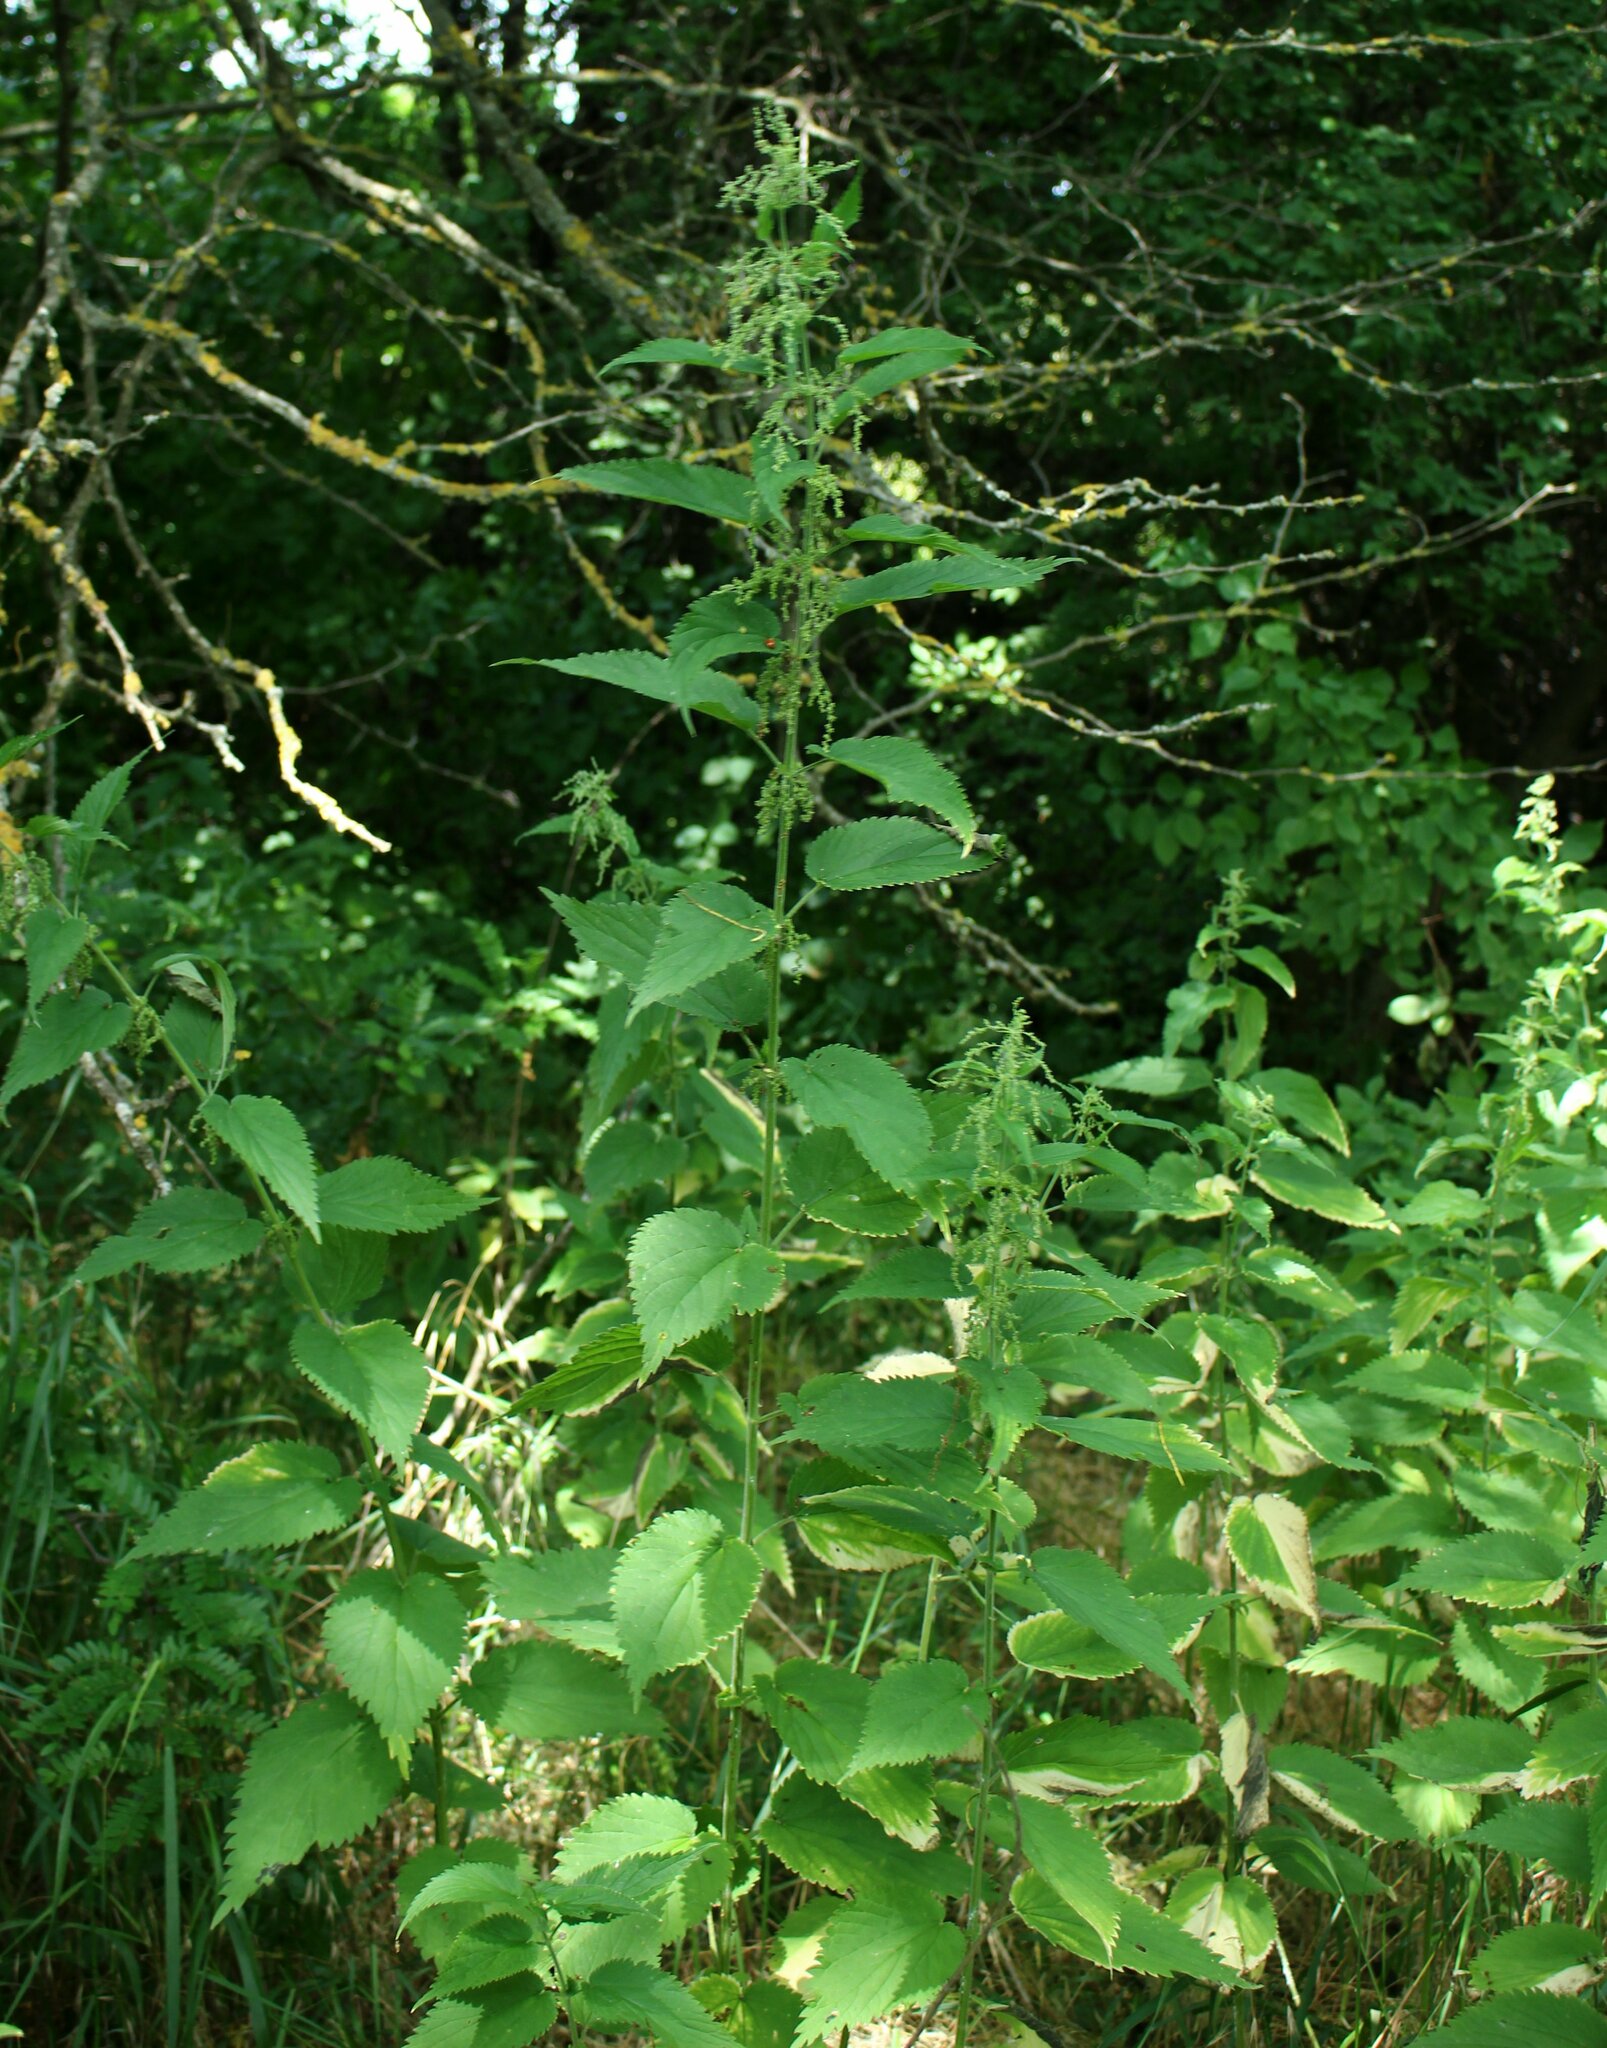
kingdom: Plantae
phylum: Tracheophyta
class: Magnoliopsida
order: Rosales
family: Urticaceae
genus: Urtica
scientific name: Urtica dioica
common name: Common nettle
